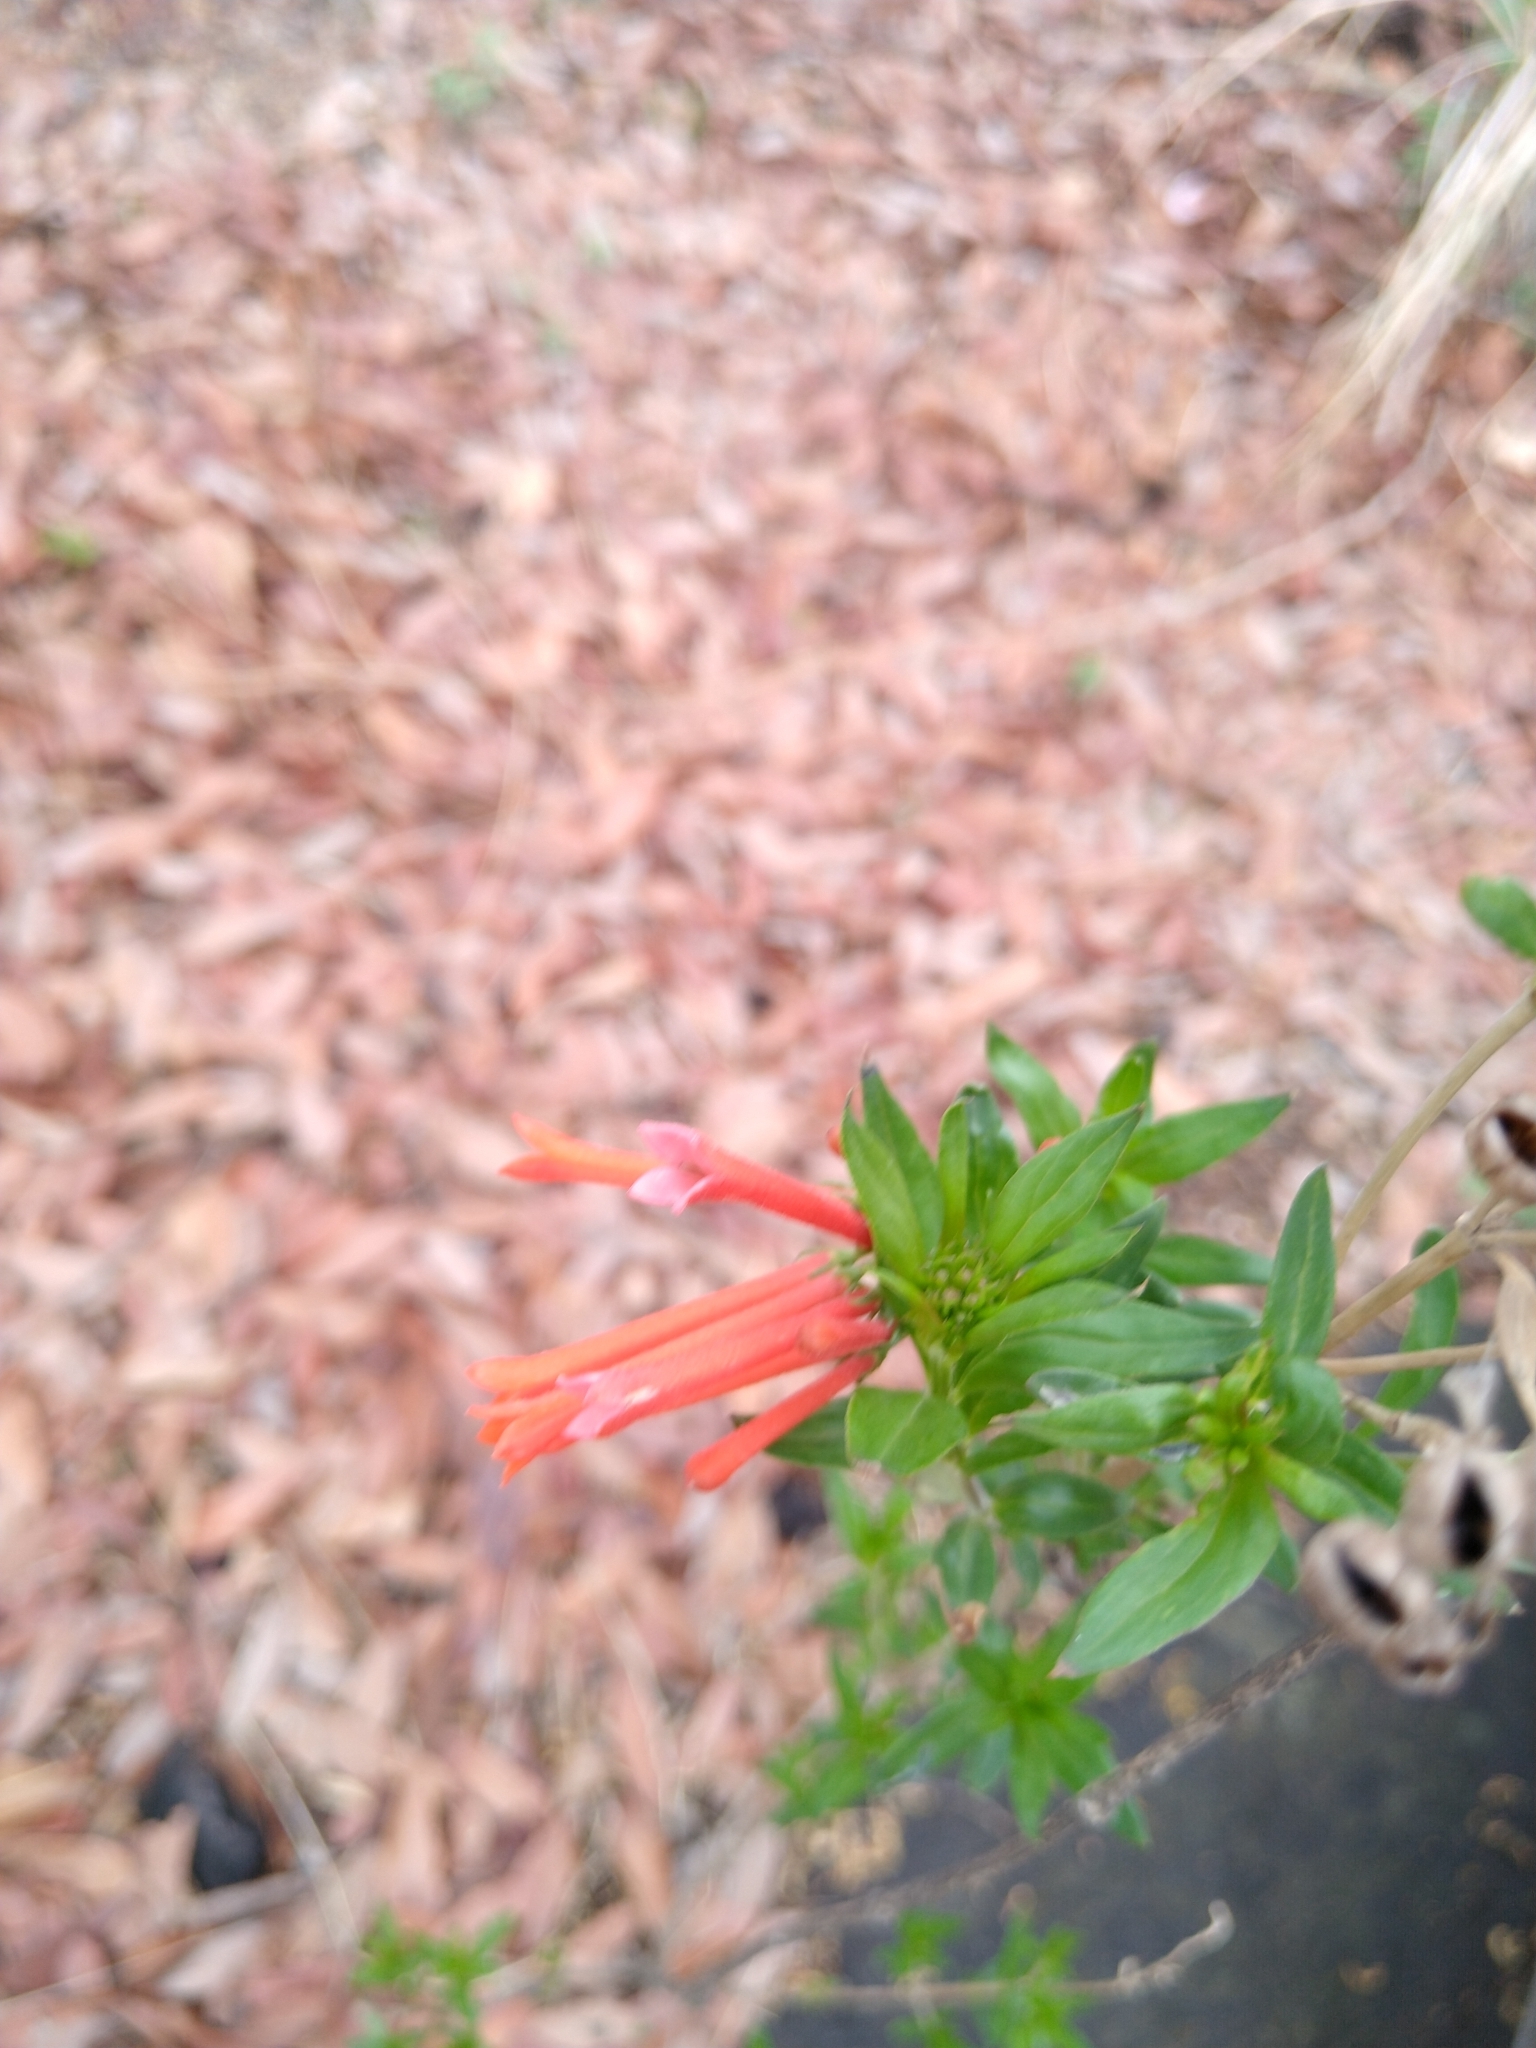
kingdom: Plantae
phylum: Tracheophyta
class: Magnoliopsida
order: Gentianales
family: Rubiaceae
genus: Bouvardia
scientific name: Bouvardia ternifolia
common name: Scarlet bouvardia
